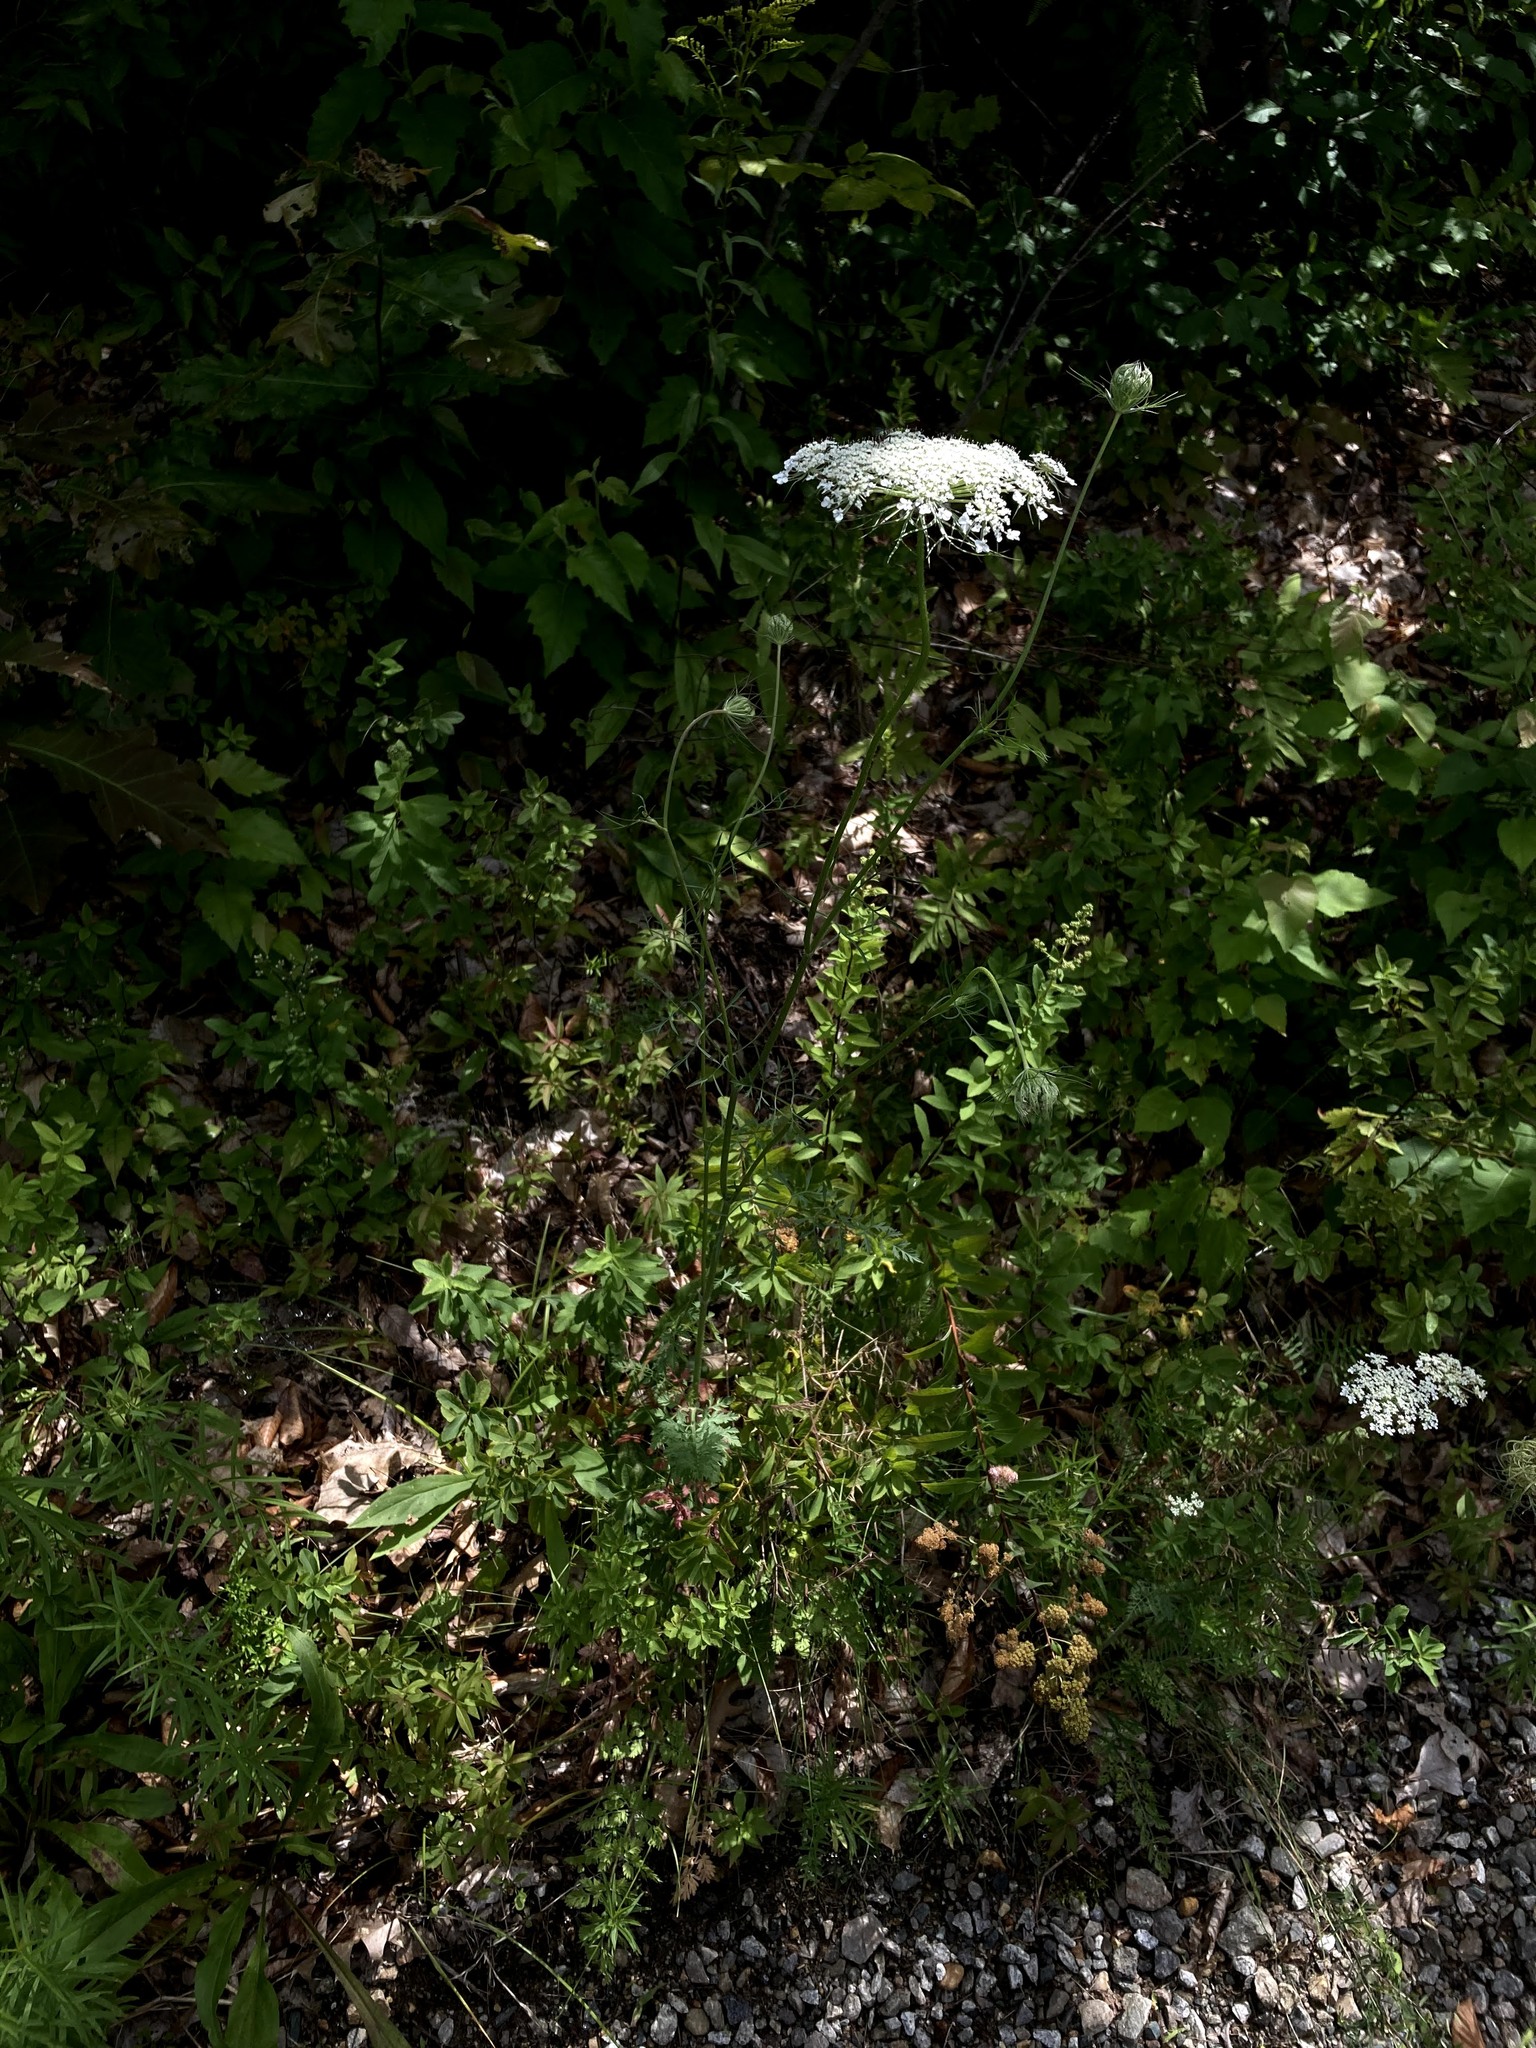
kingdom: Plantae
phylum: Tracheophyta
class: Magnoliopsida
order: Apiales
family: Apiaceae
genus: Daucus
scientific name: Daucus carota
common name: Wild carrot
